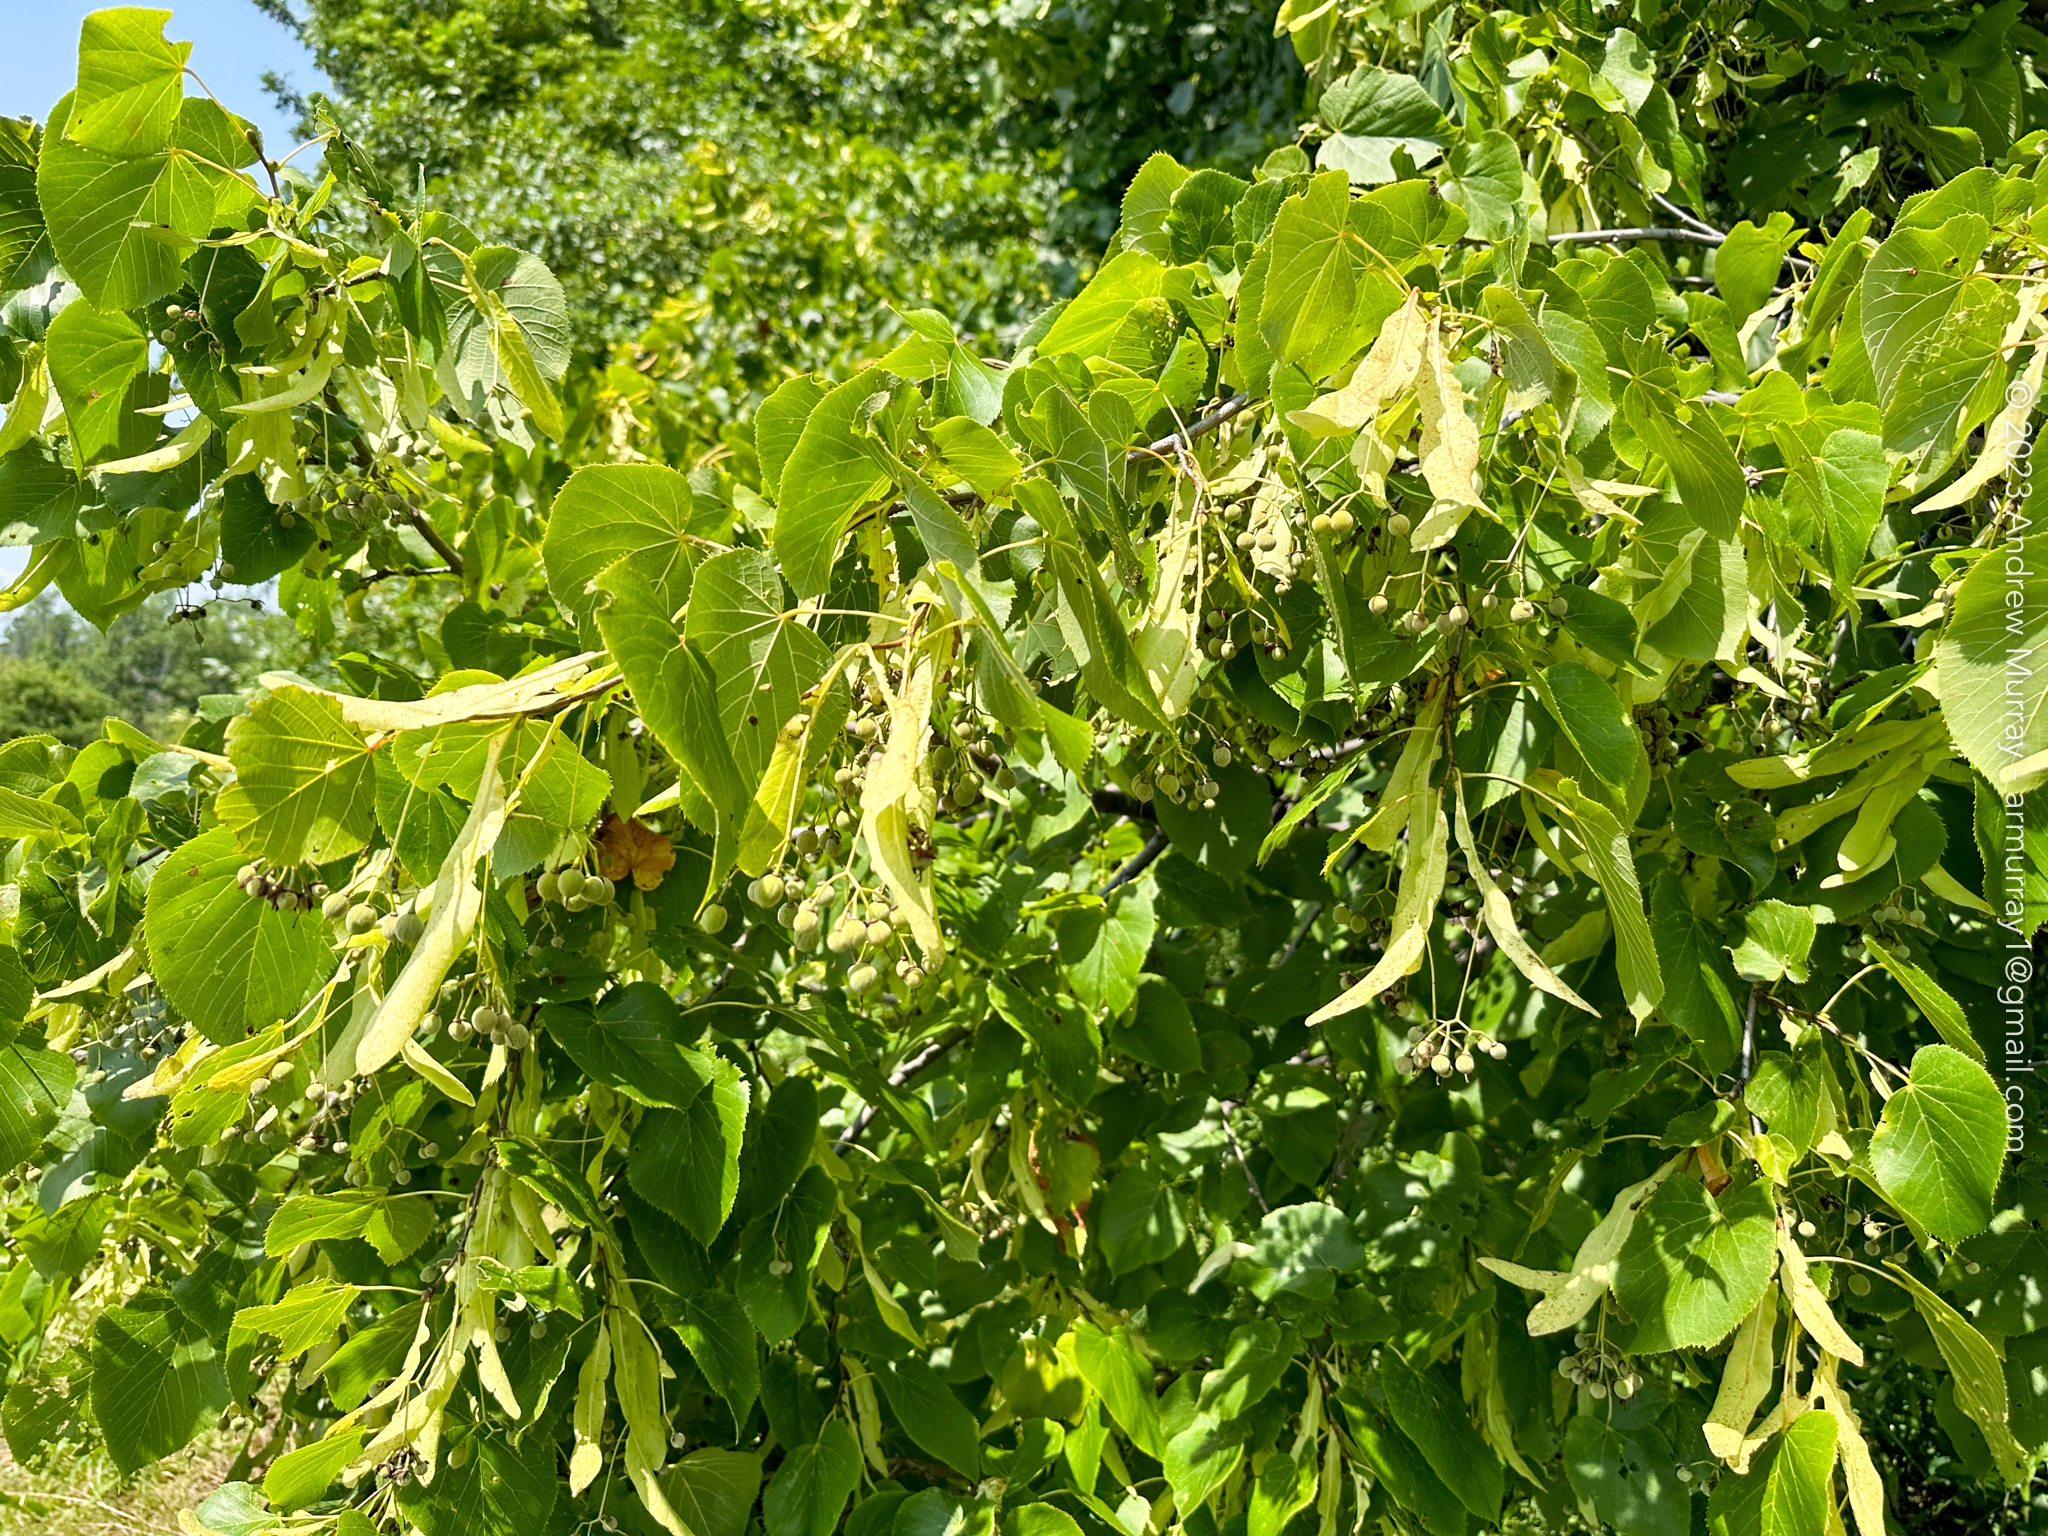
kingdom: Plantae
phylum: Tracheophyta
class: Magnoliopsida
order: Malvales
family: Malvaceae
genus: Tilia
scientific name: Tilia americana
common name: Basswood
